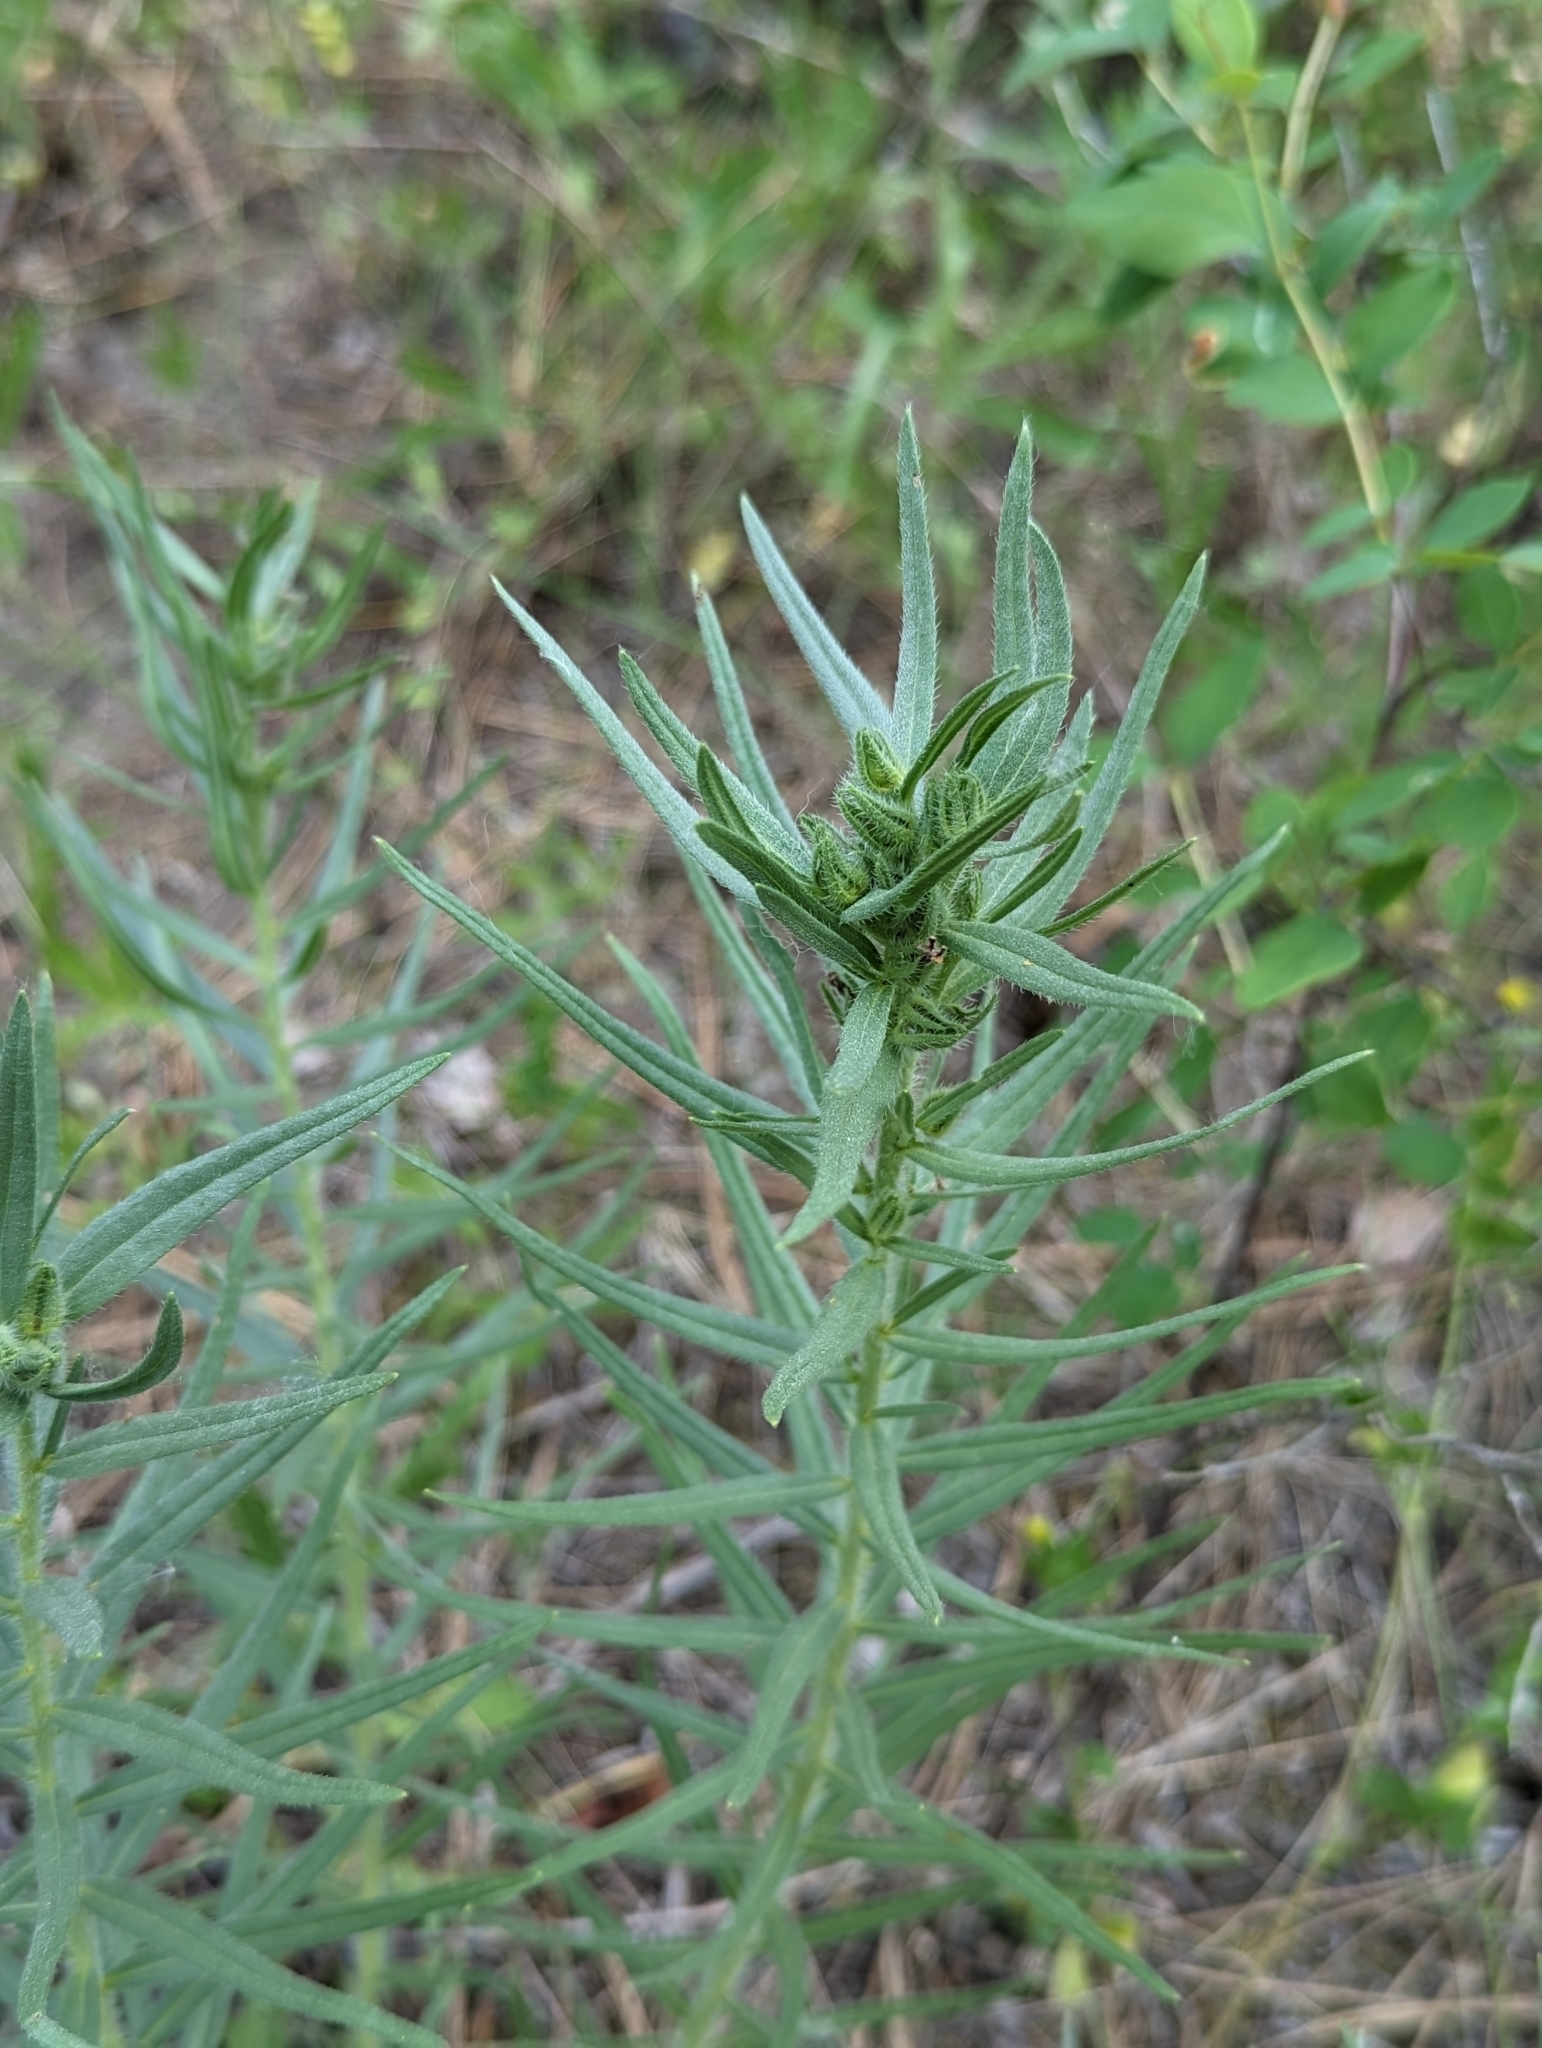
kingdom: Plantae
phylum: Tracheophyta
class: Magnoliopsida
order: Boraginales
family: Boraginaceae
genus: Lithospermum
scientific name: Lithospermum ruderale
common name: Western gromwell
